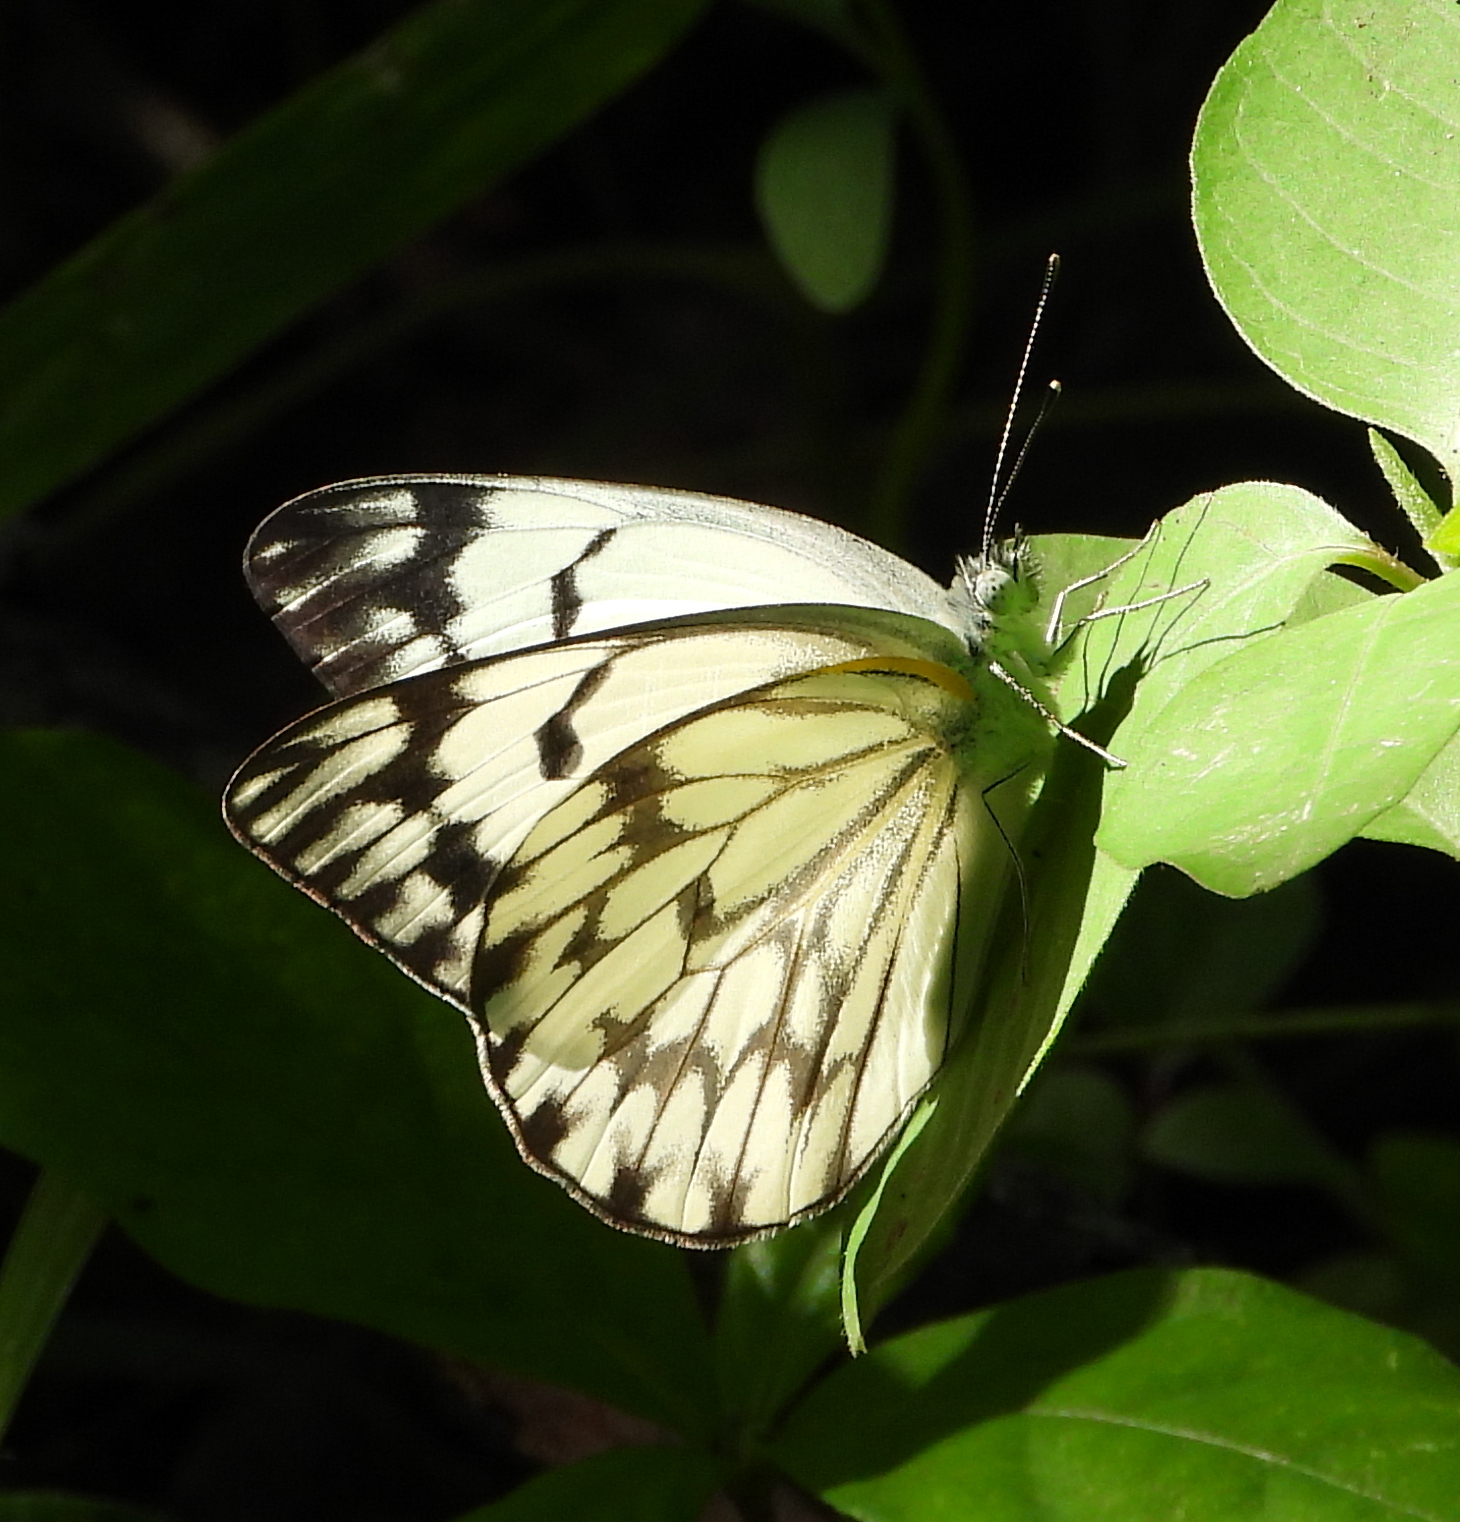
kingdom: Animalia
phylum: Arthropoda
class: Insecta
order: Lepidoptera
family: Pieridae
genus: Belenois
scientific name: Belenois gidica
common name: Pointed caper white
